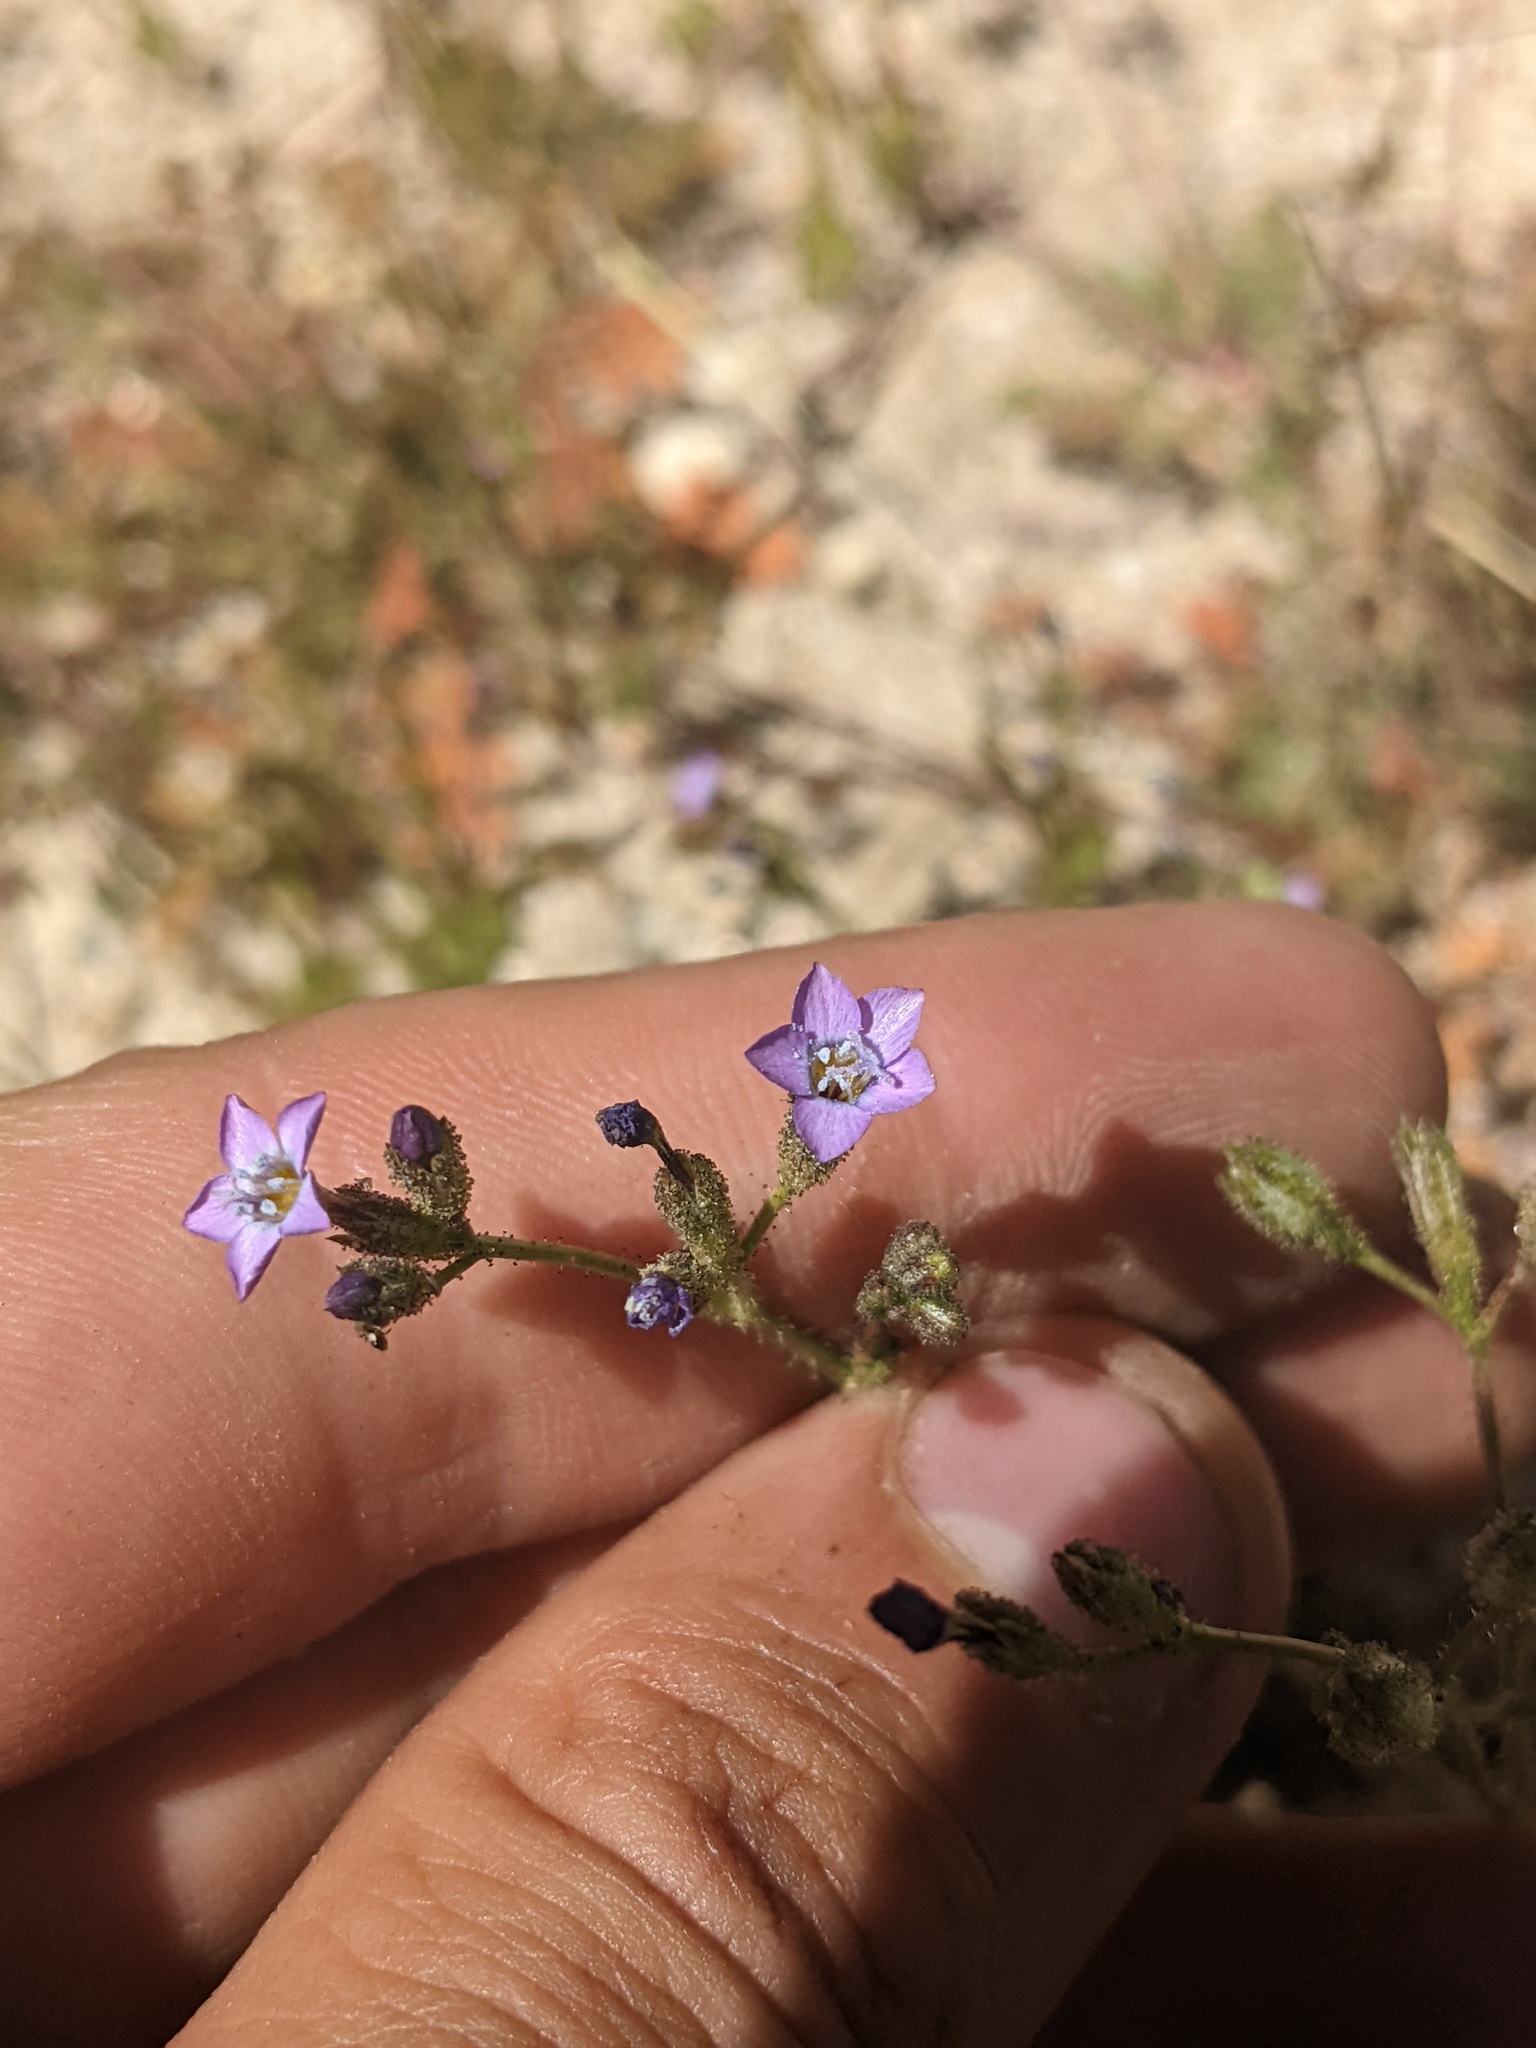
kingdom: Plantae
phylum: Tracheophyta
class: Magnoliopsida
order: Ericales
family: Polemoniaceae
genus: Gilia
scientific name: Gilia diegensis
